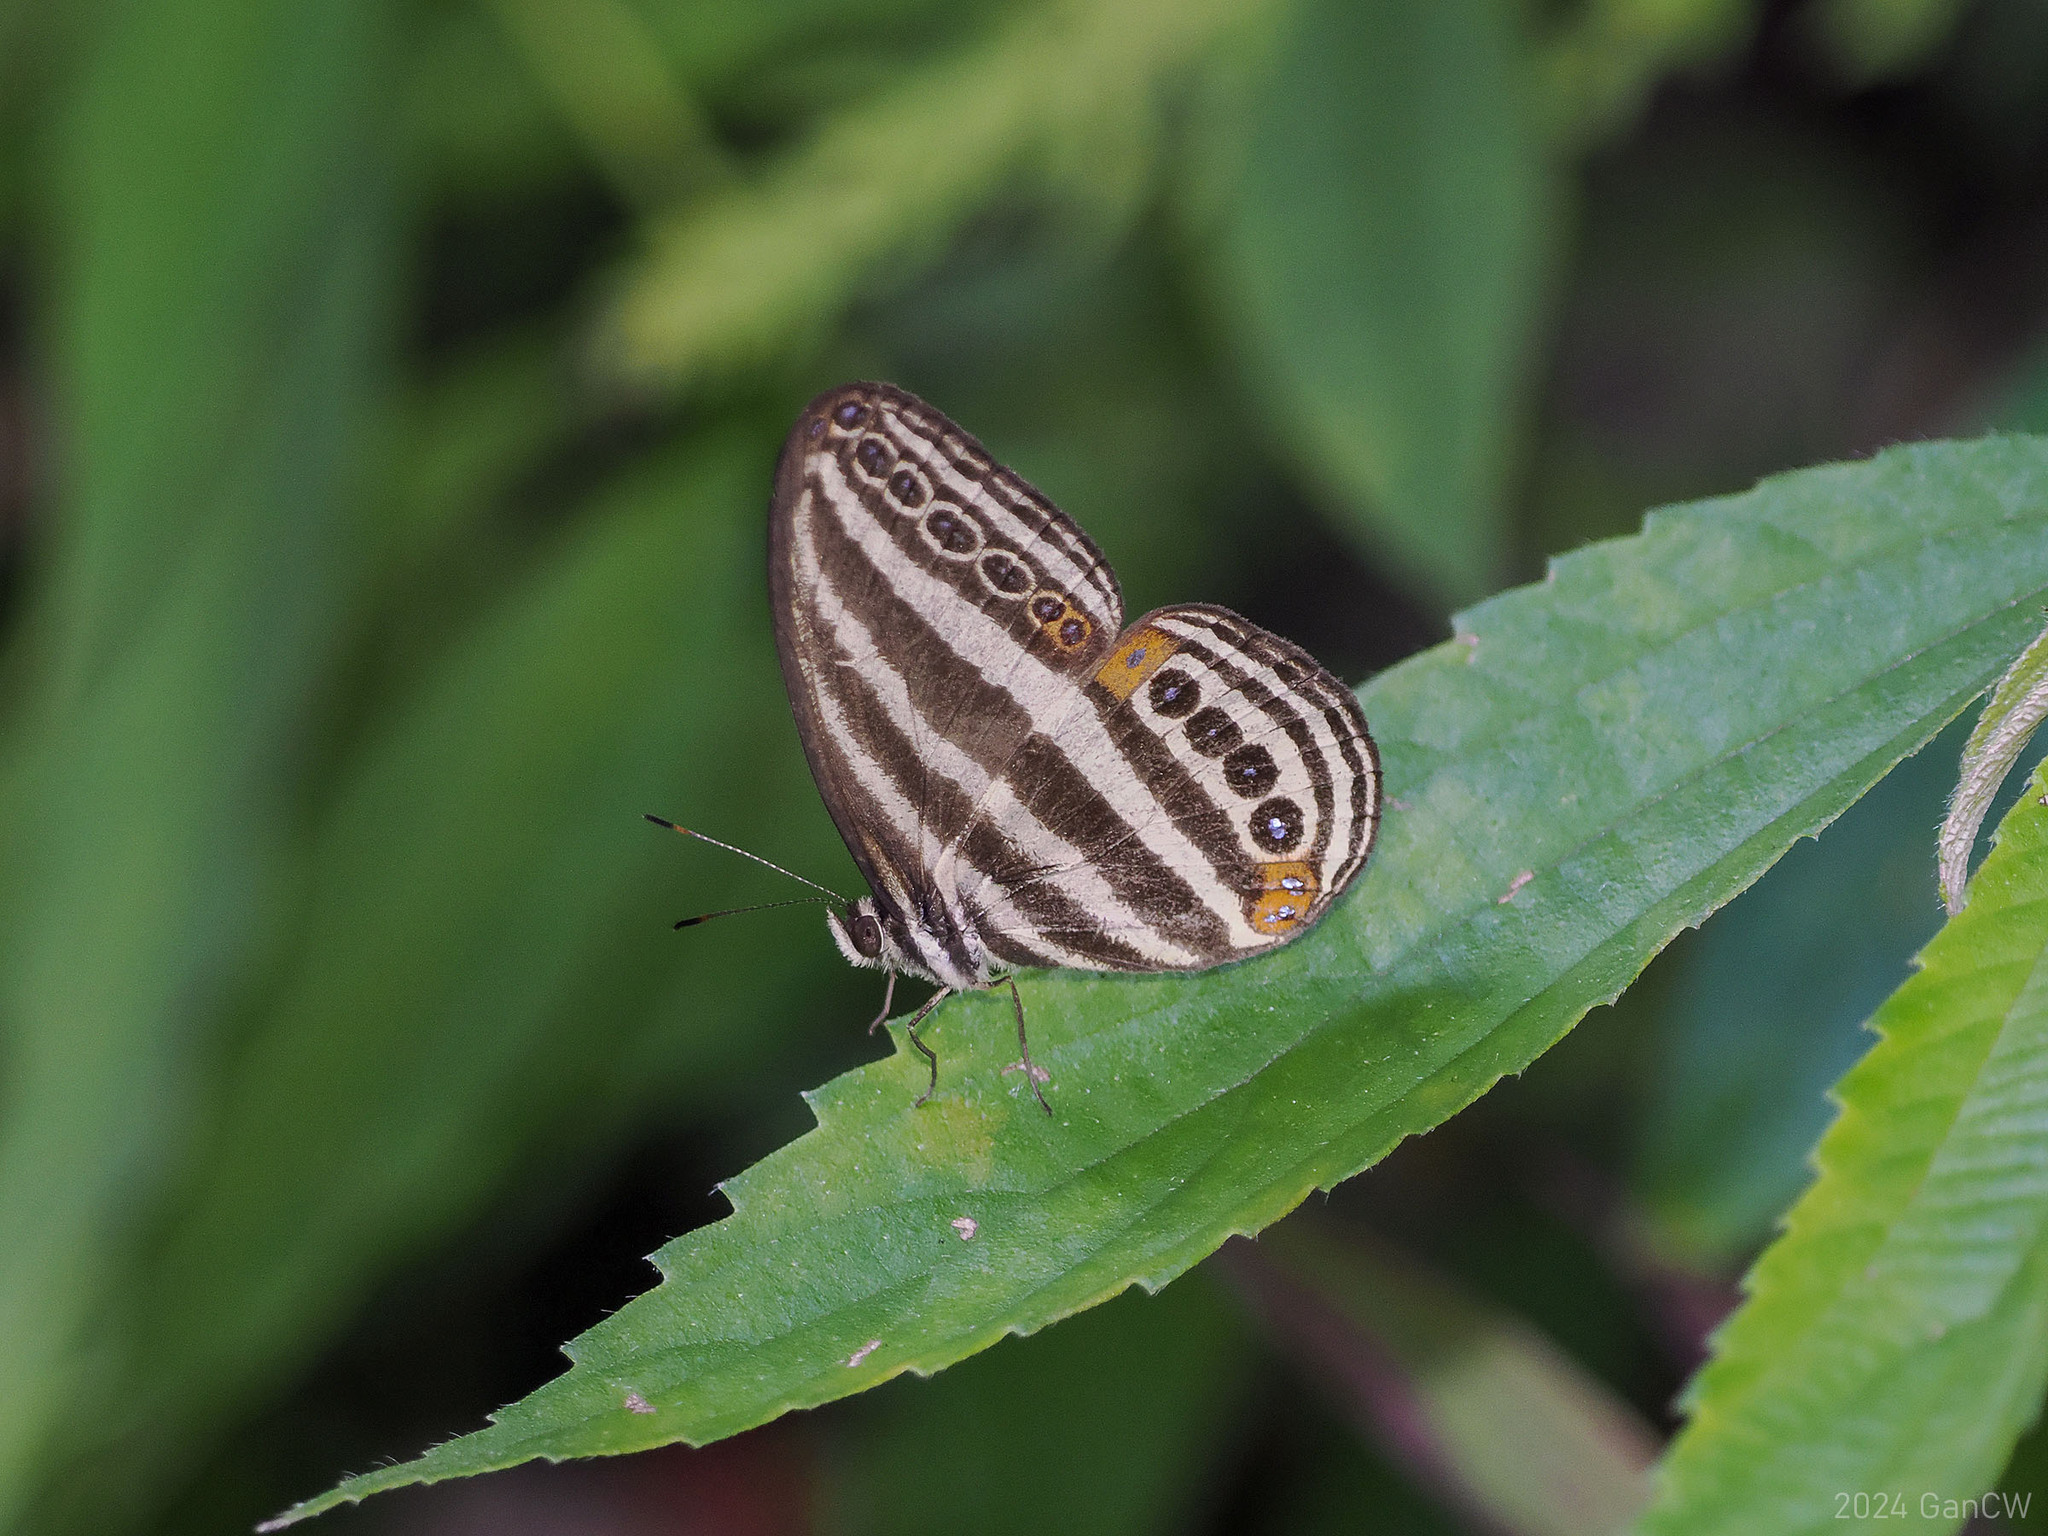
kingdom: Animalia
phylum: Arthropoda
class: Insecta
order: Lepidoptera
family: Nymphalidae
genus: Ragadia
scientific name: Ragadia luzonia
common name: Luzon striped ringlet
